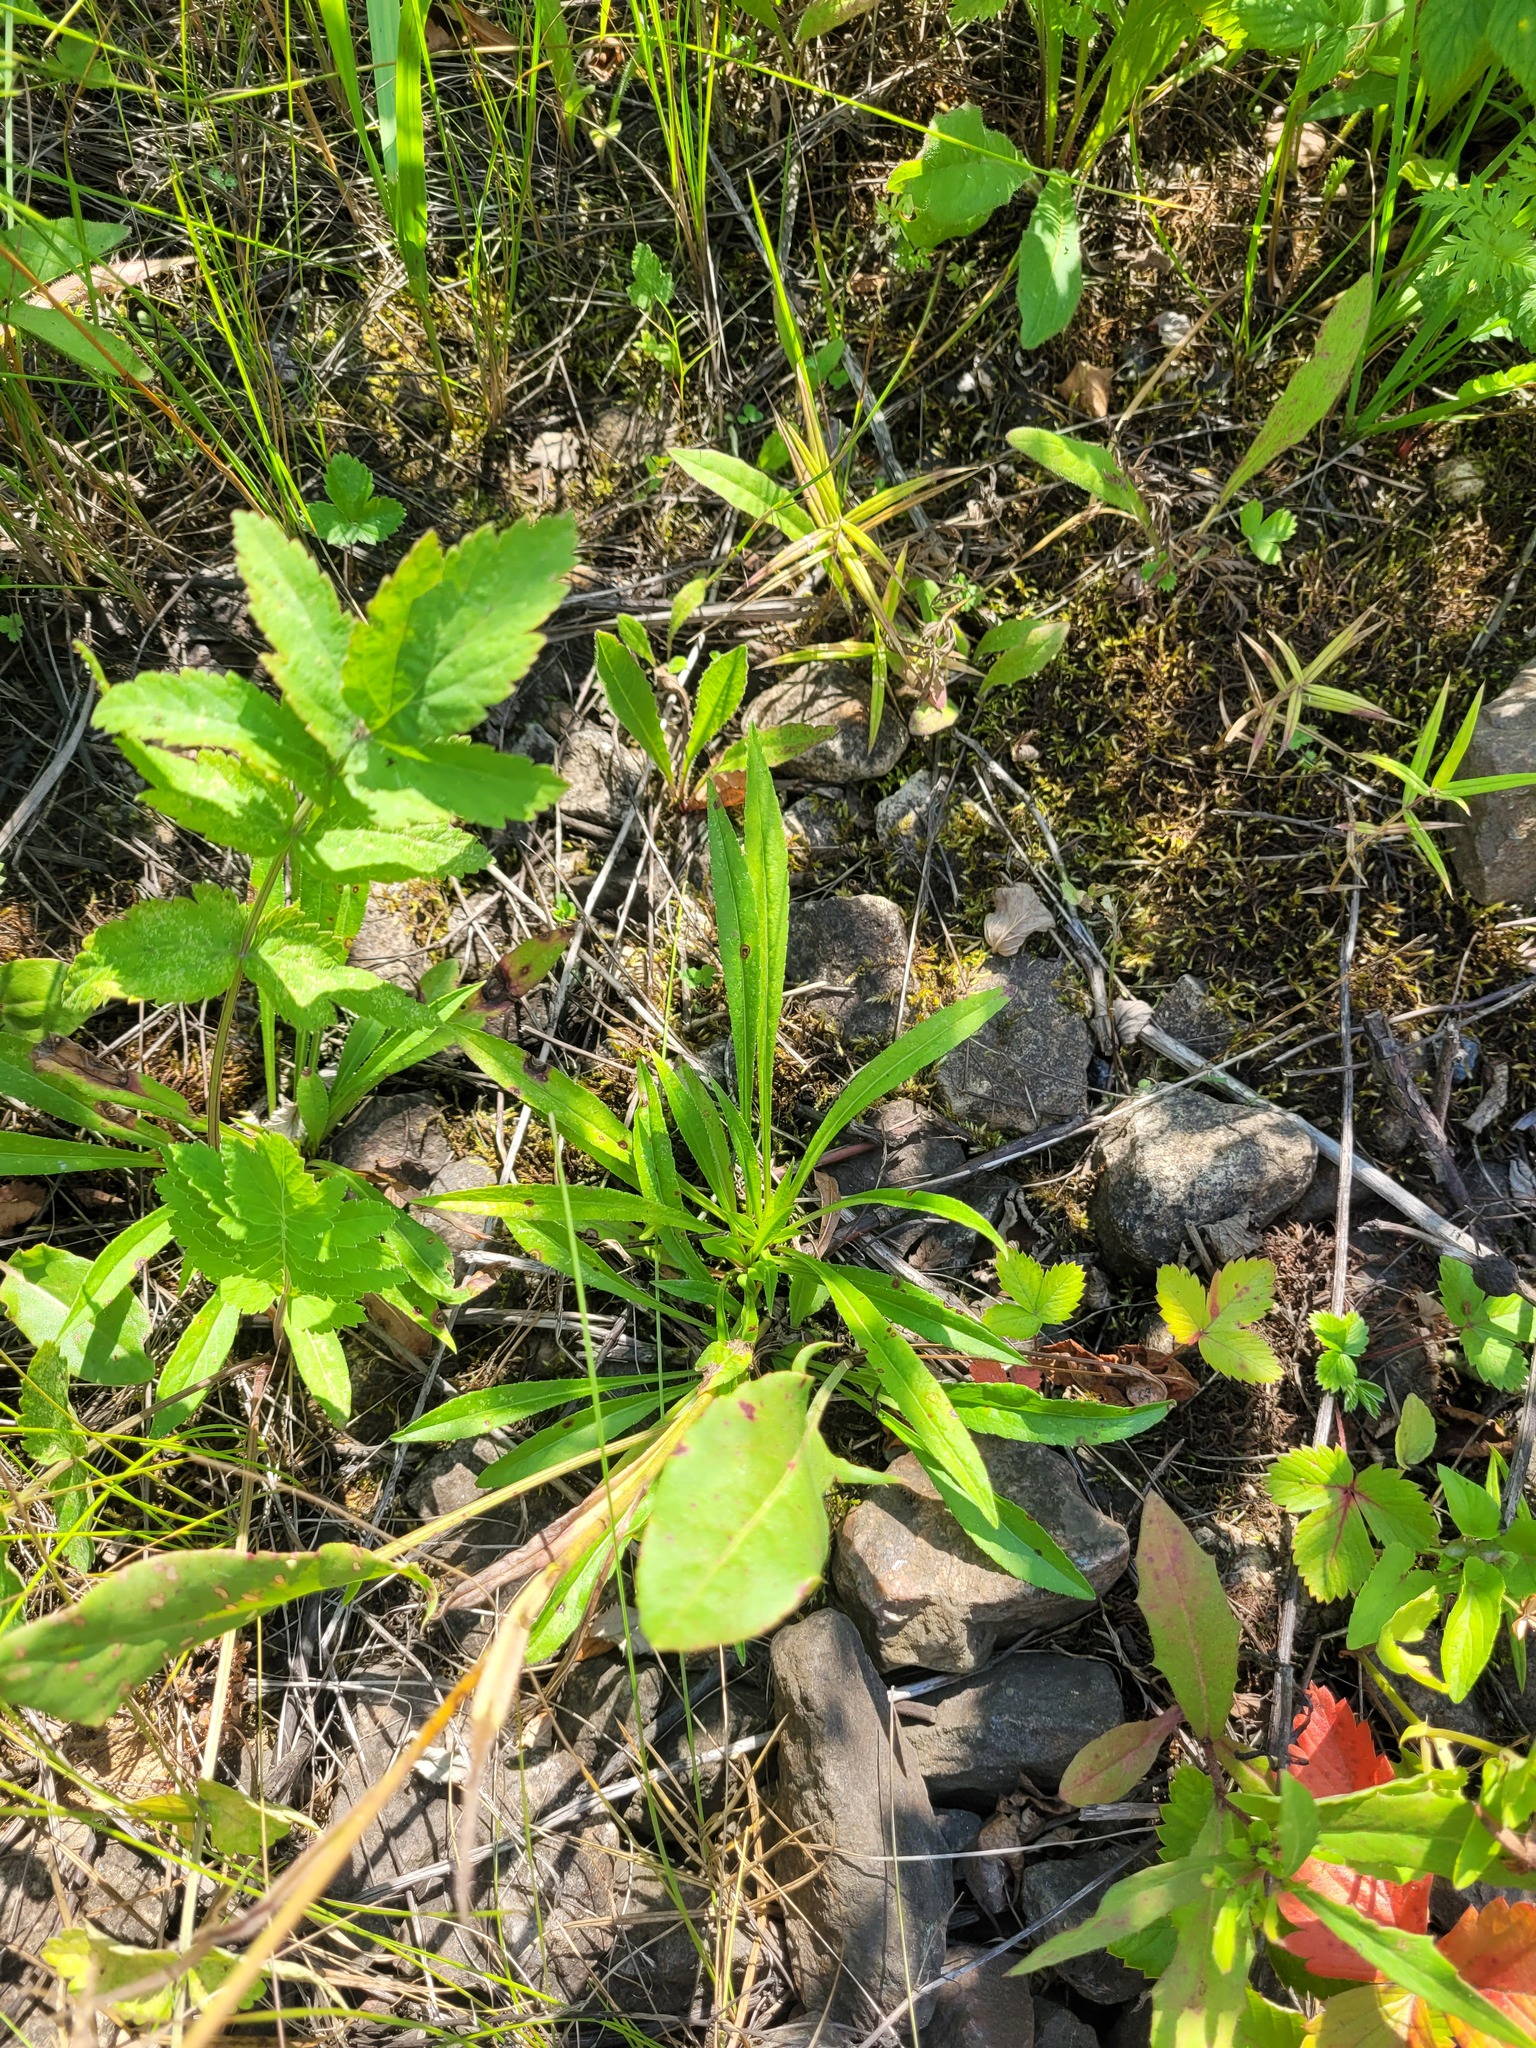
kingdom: Plantae
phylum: Tracheophyta
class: Magnoliopsida
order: Asterales
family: Campanulaceae
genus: Campanula
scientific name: Campanula persicifolia
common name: Peach-leaved bellflower
